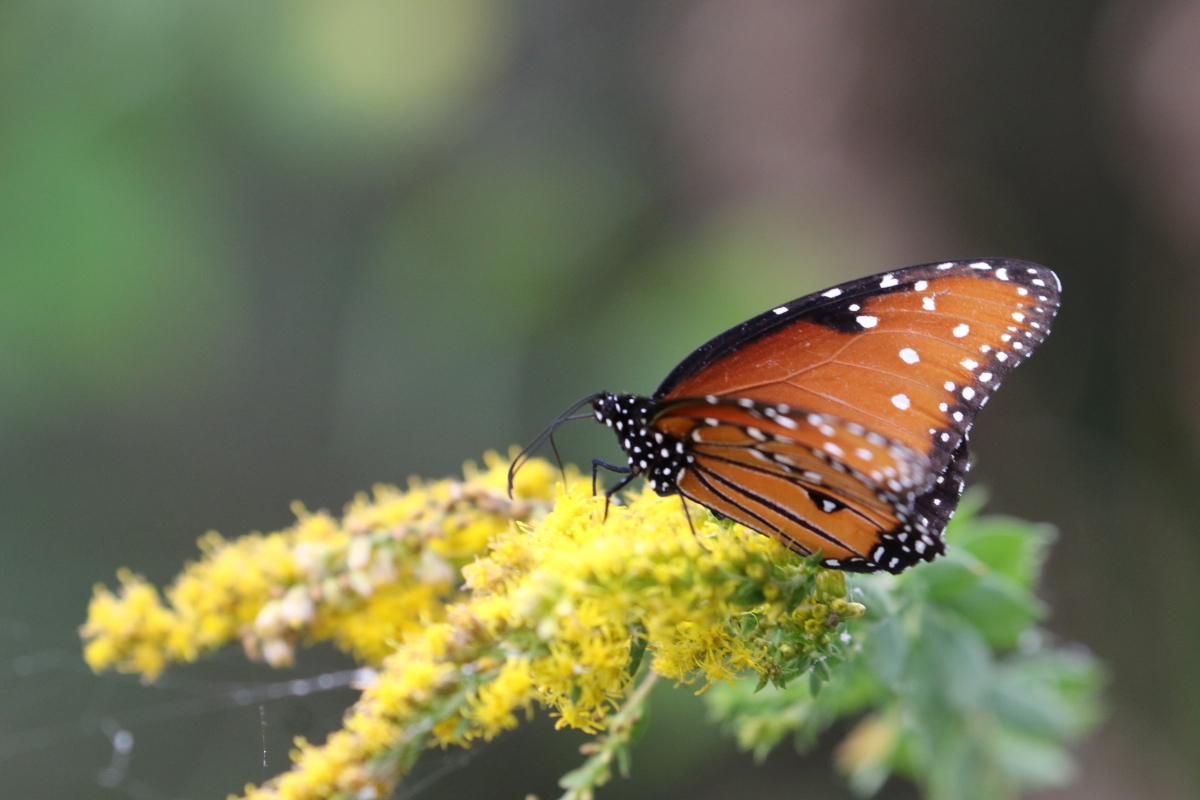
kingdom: Animalia
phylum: Arthropoda
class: Insecta
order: Lepidoptera
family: Nymphalidae
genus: Danaus
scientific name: Danaus gilippus
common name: Queen
